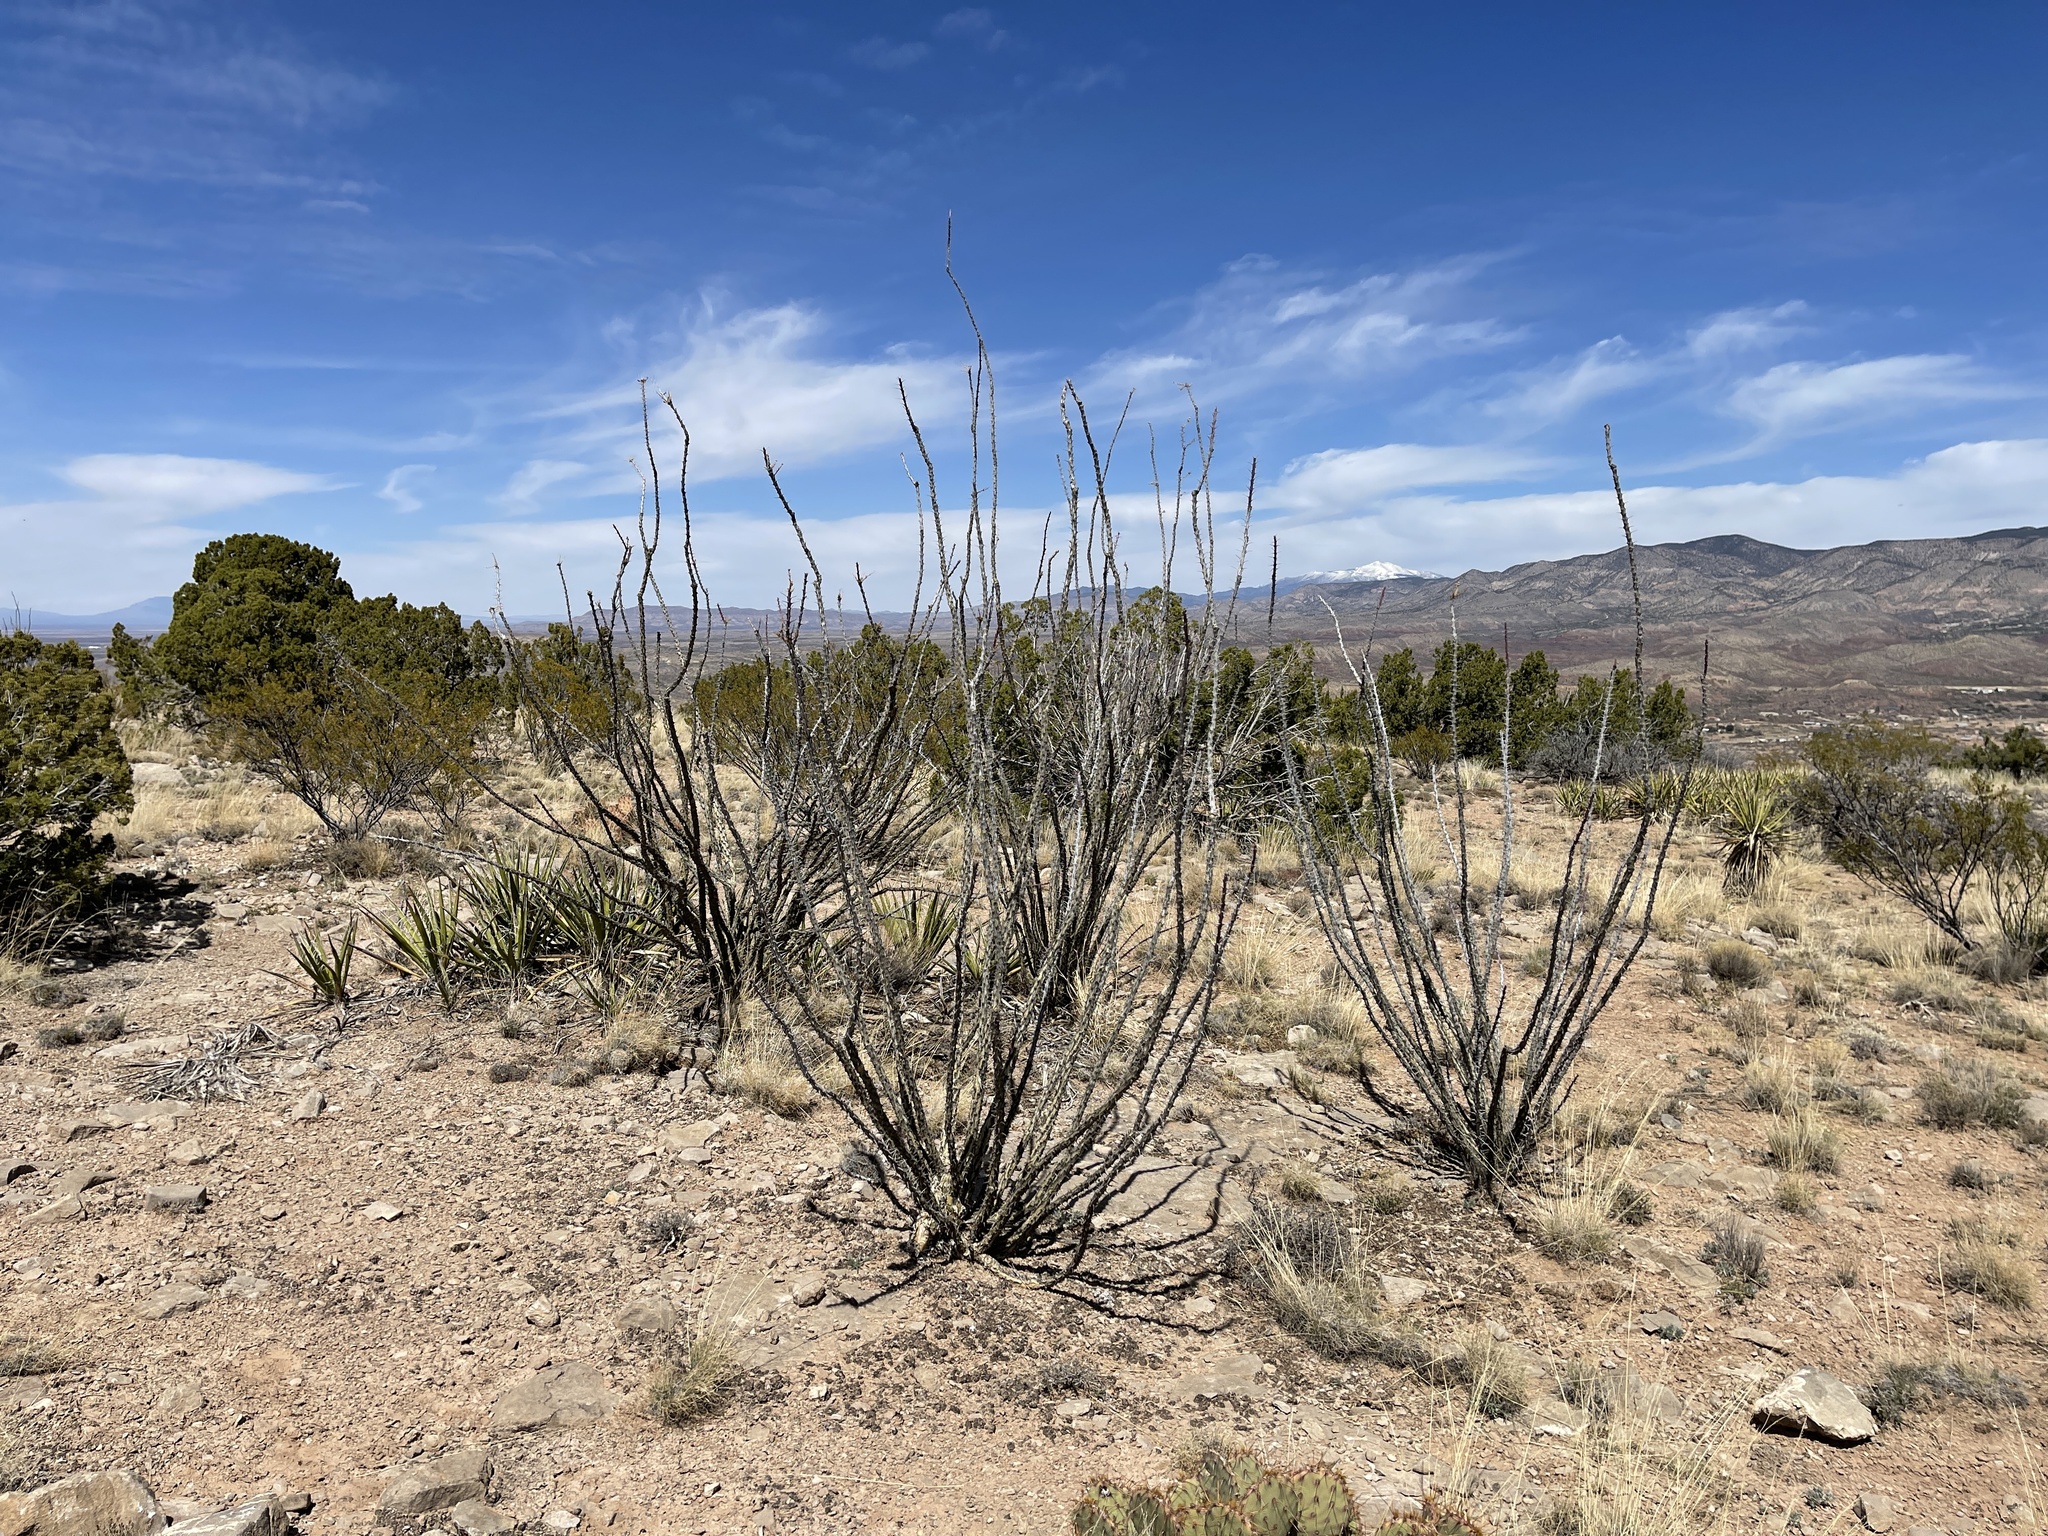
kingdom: Plantae
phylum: Tracheophyta
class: Magnoliopsida
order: Ericales
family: Fouquieriaceae
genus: Fouquieria
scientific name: Fouquieria splendens
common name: Vine-cactus
